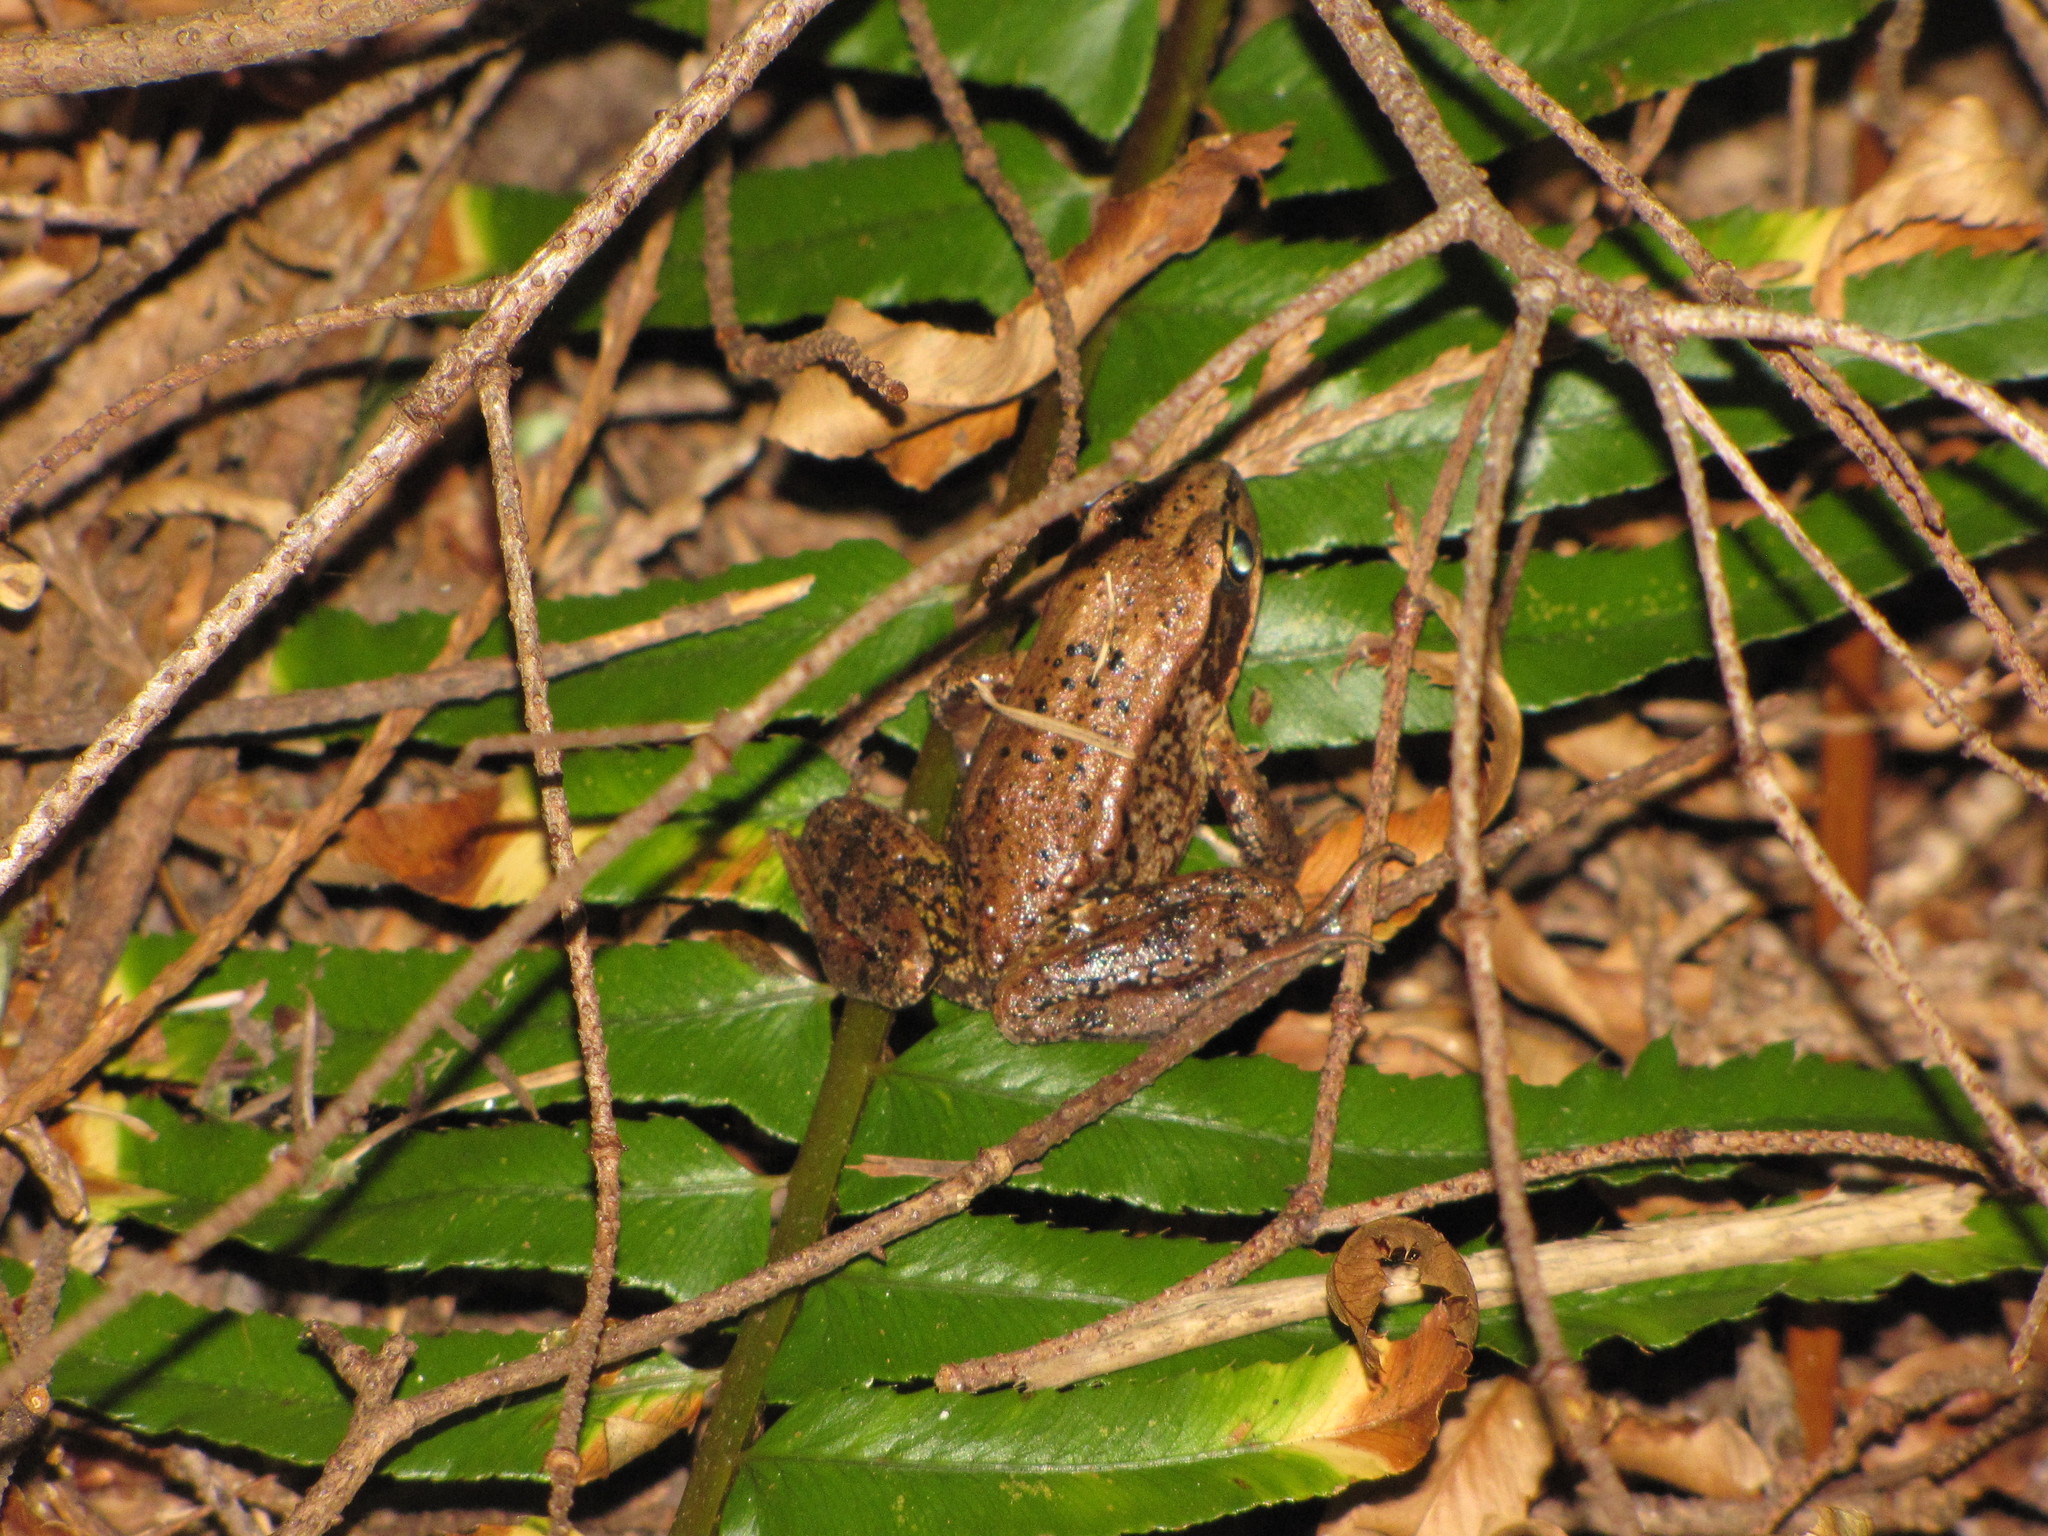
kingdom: Animalia
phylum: Chordata
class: Amphibia
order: Anura
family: Ranidae
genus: Rana
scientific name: Rana aurora
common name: Red-legged frog
